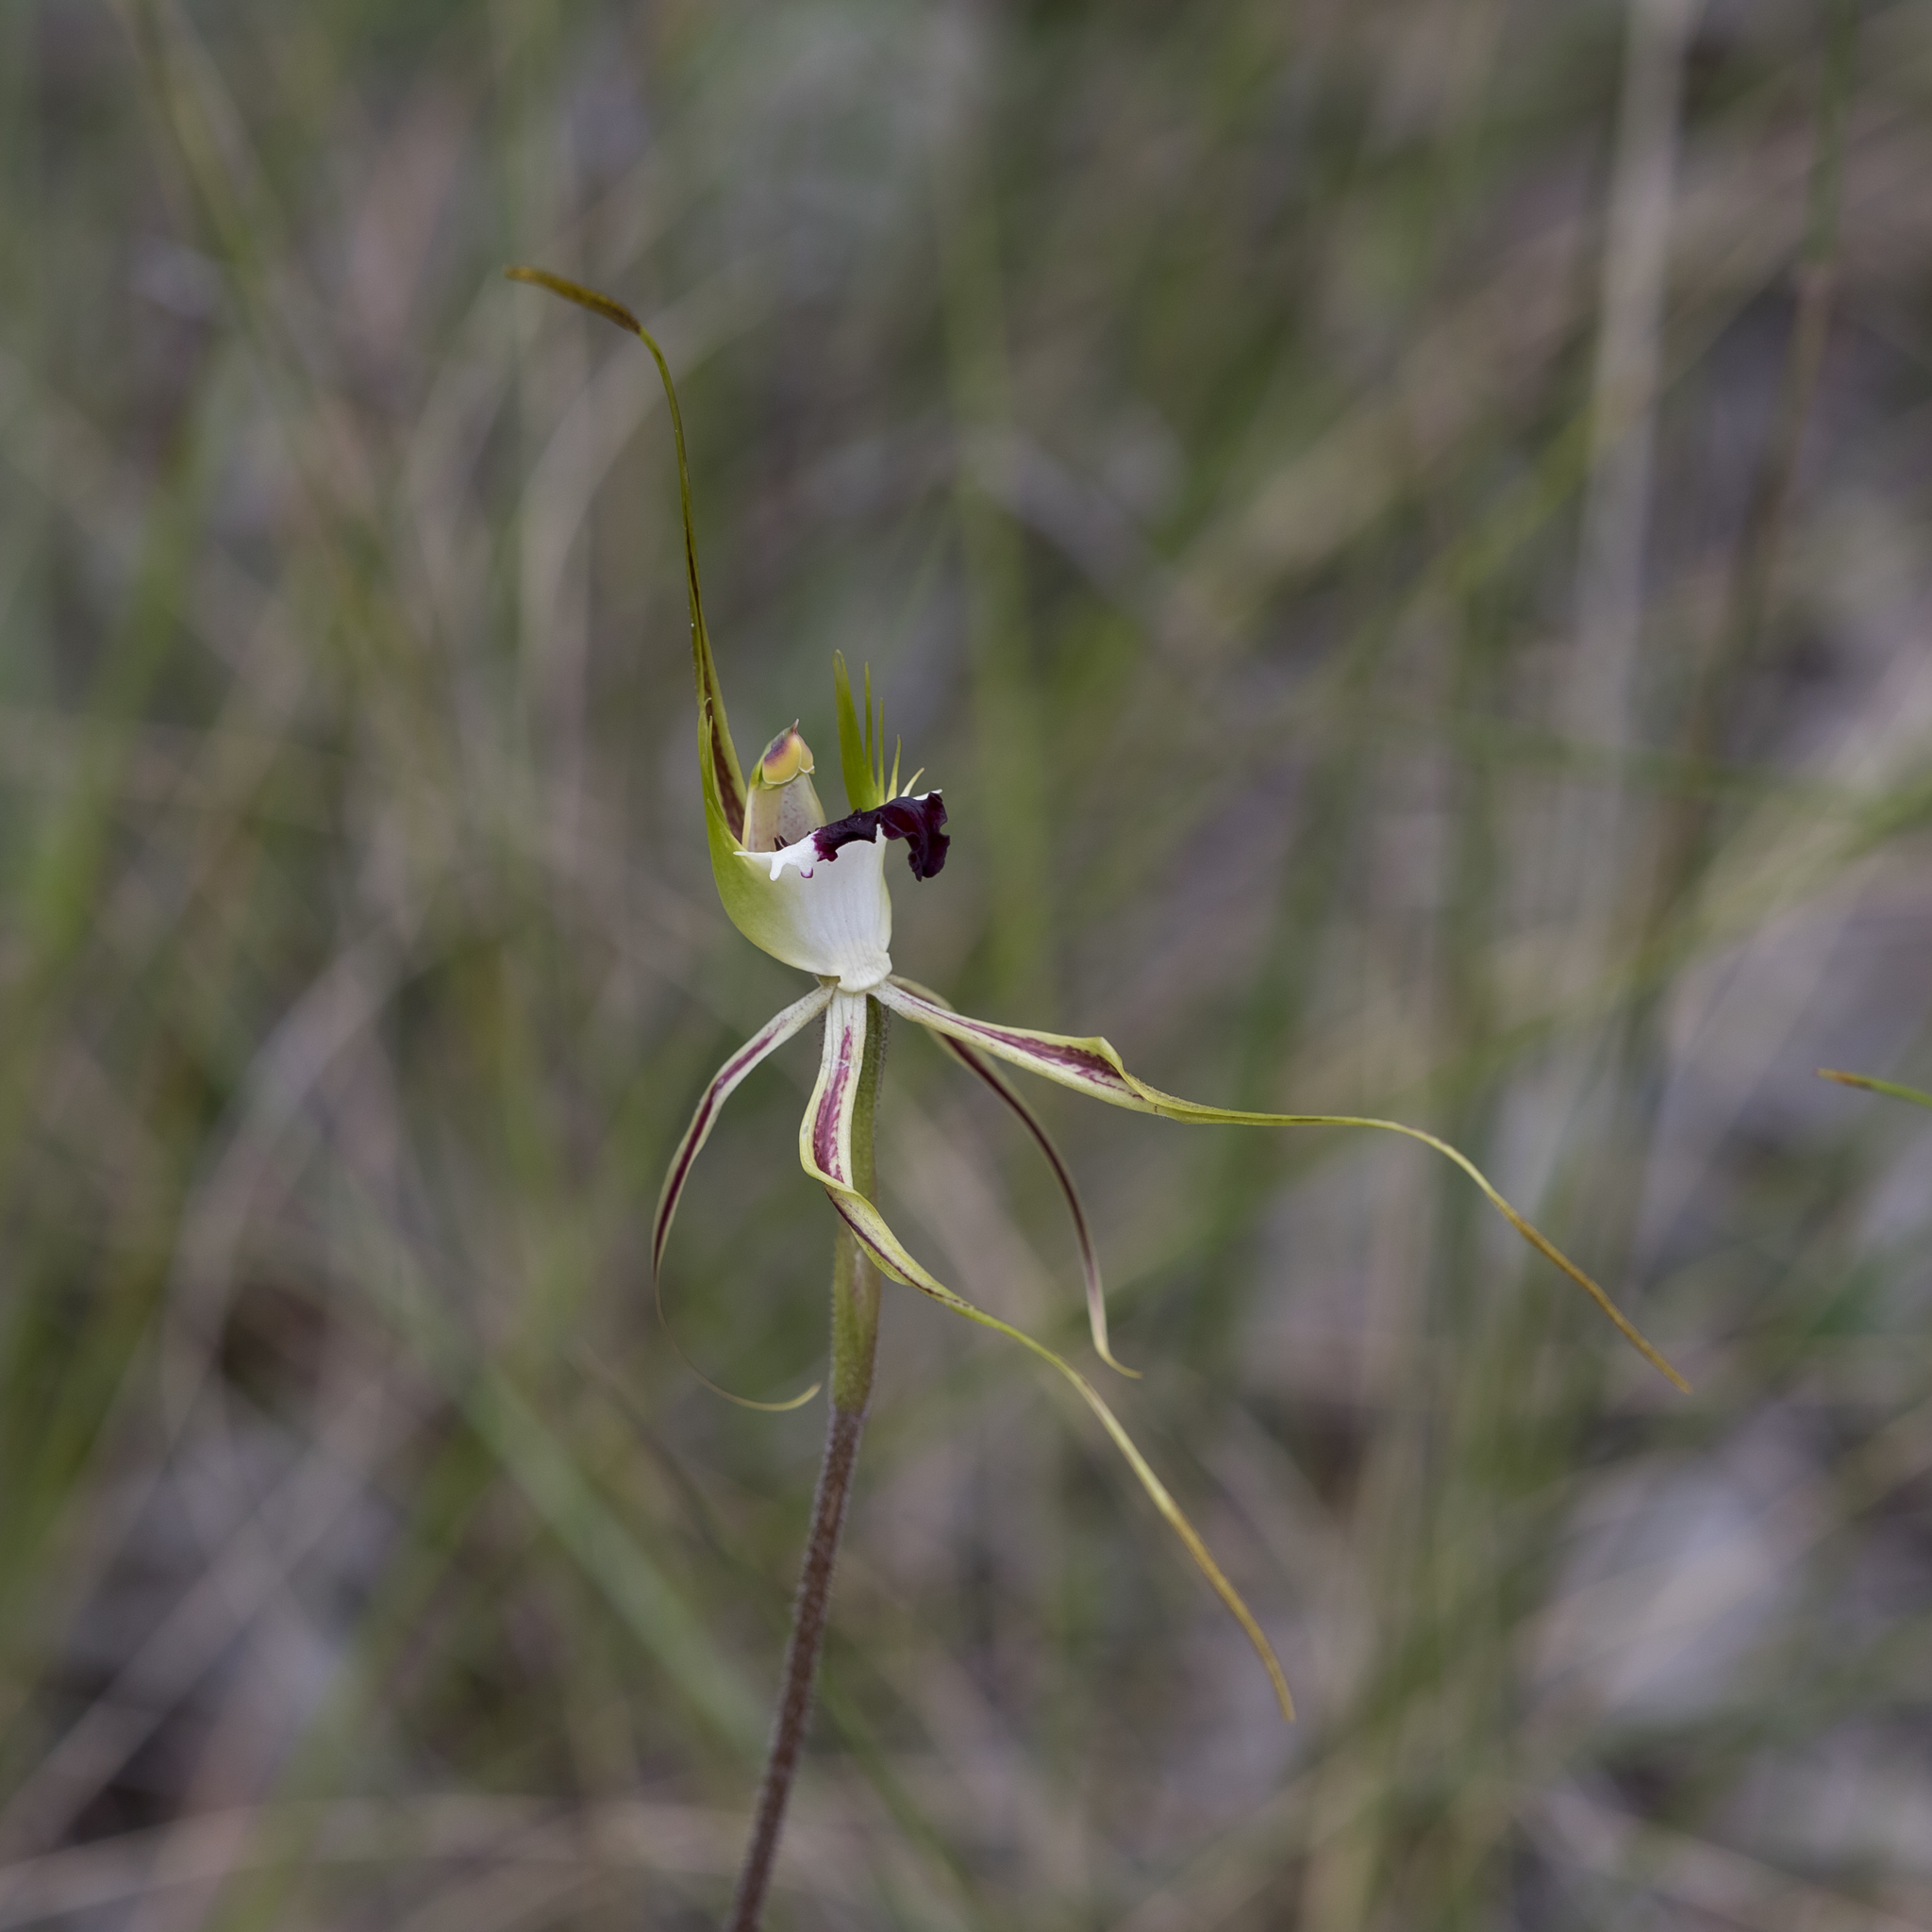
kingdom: Plantae
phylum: Tracheophyta
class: Liliopsida
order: Asparagales
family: Orchidaceae
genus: Caladenia
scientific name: Caladenia tentaculata
